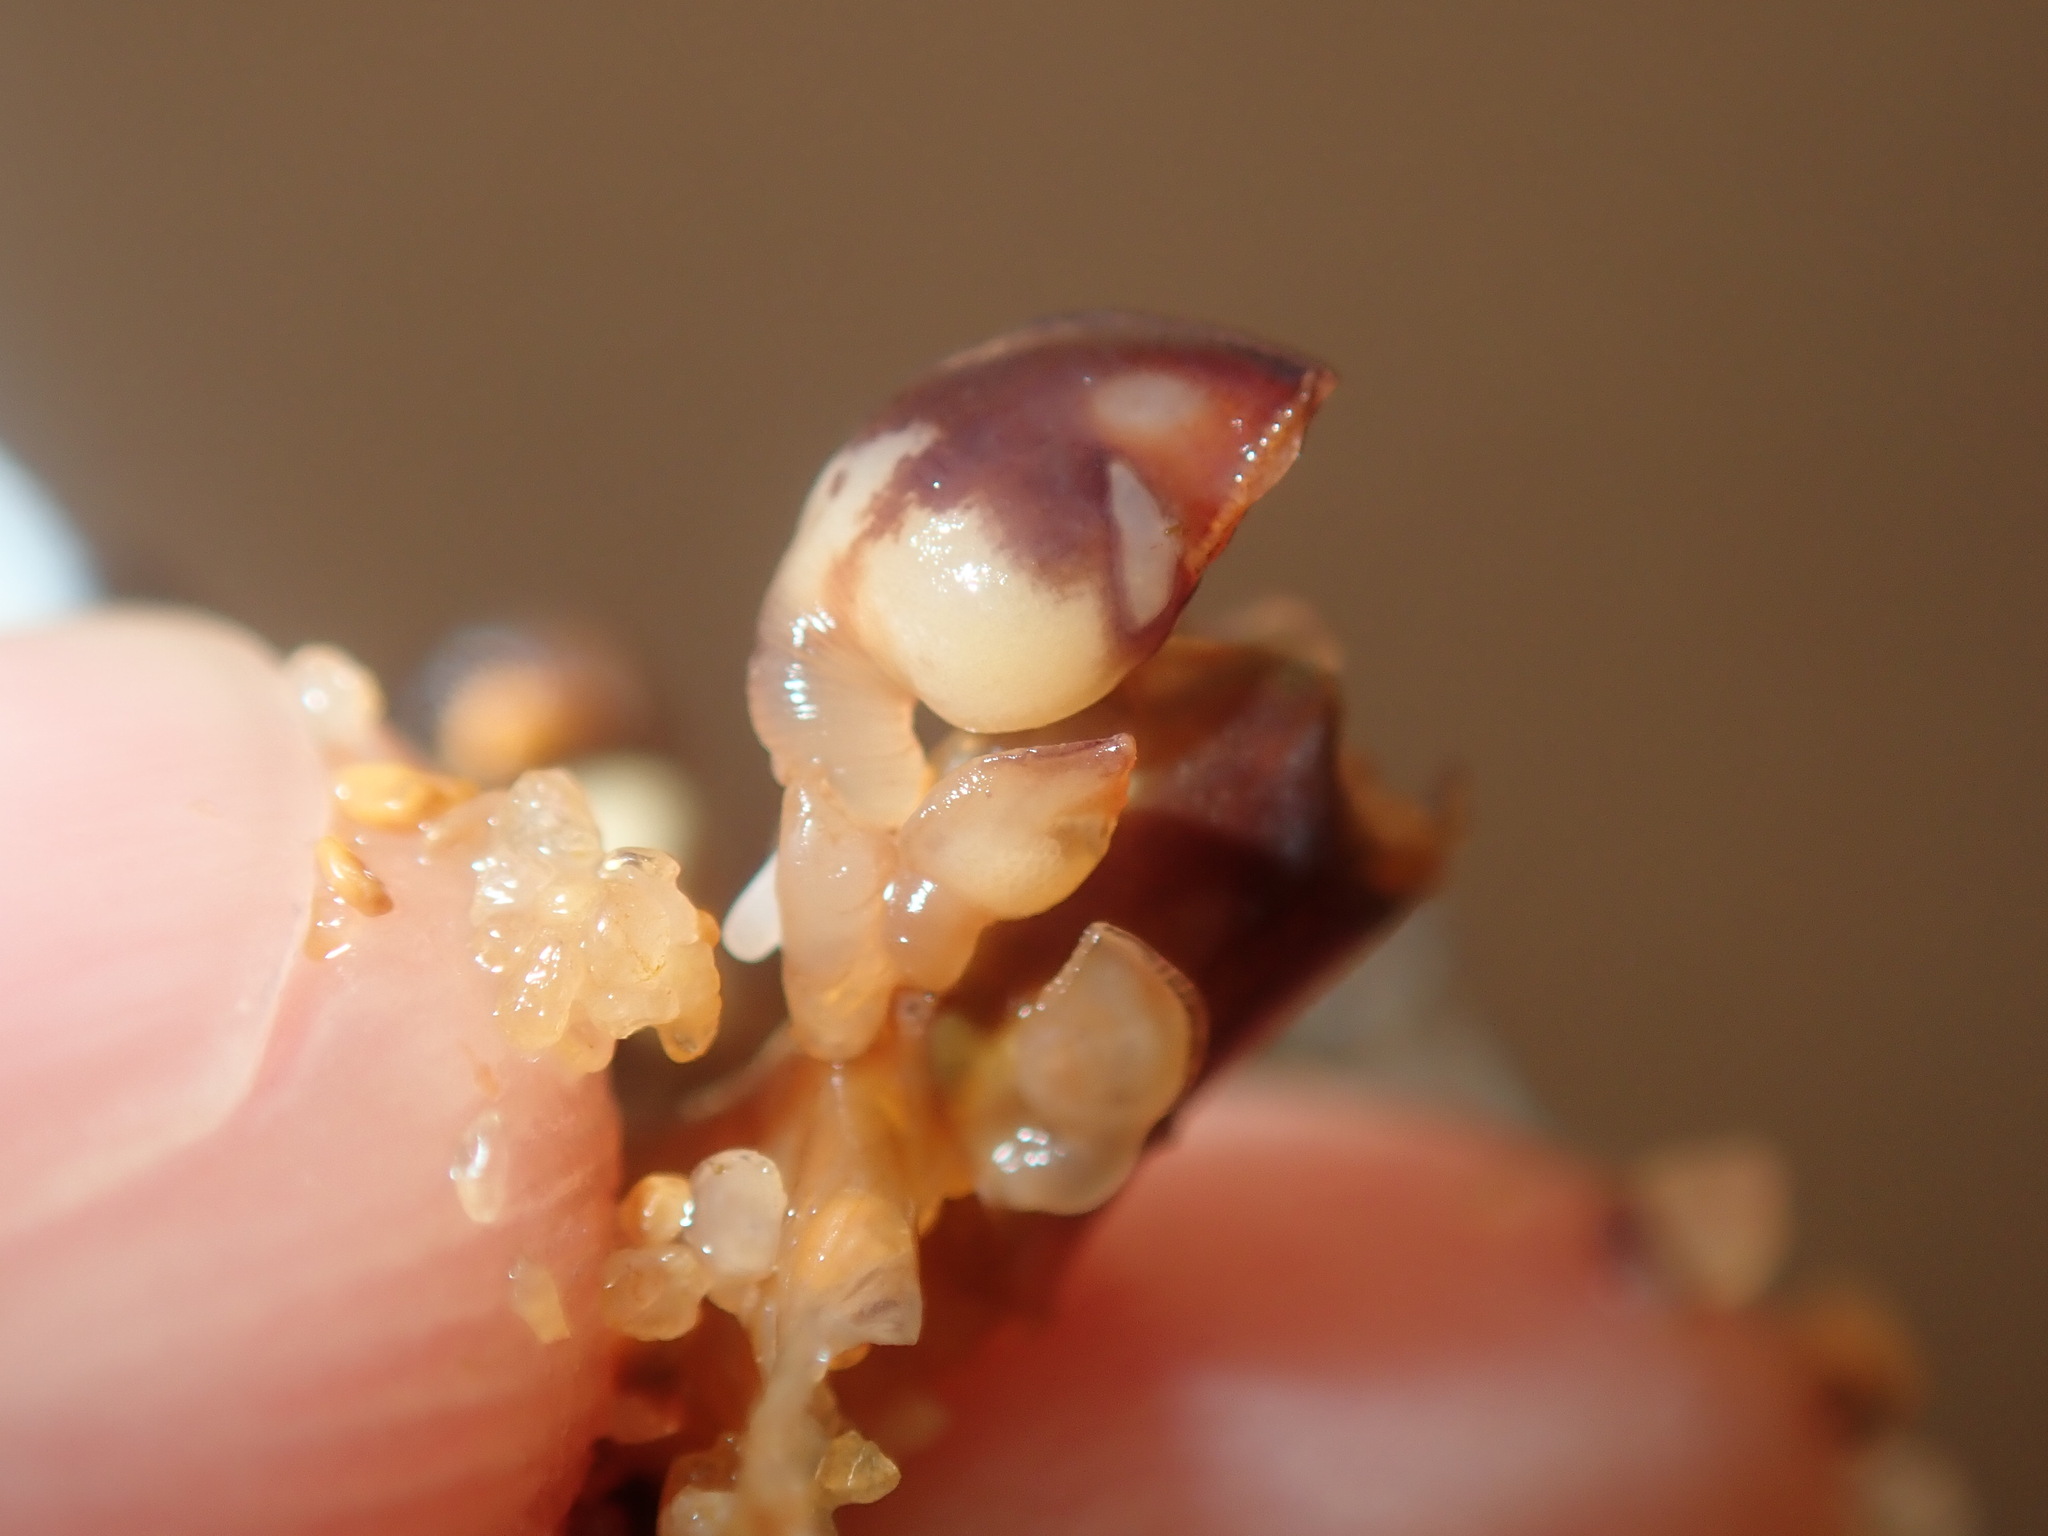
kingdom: Animalia
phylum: Arthropoda
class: Maxillopoda
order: Pedunculata
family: Heteralepadidae
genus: Paralepas
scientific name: Paralepas quadrata
